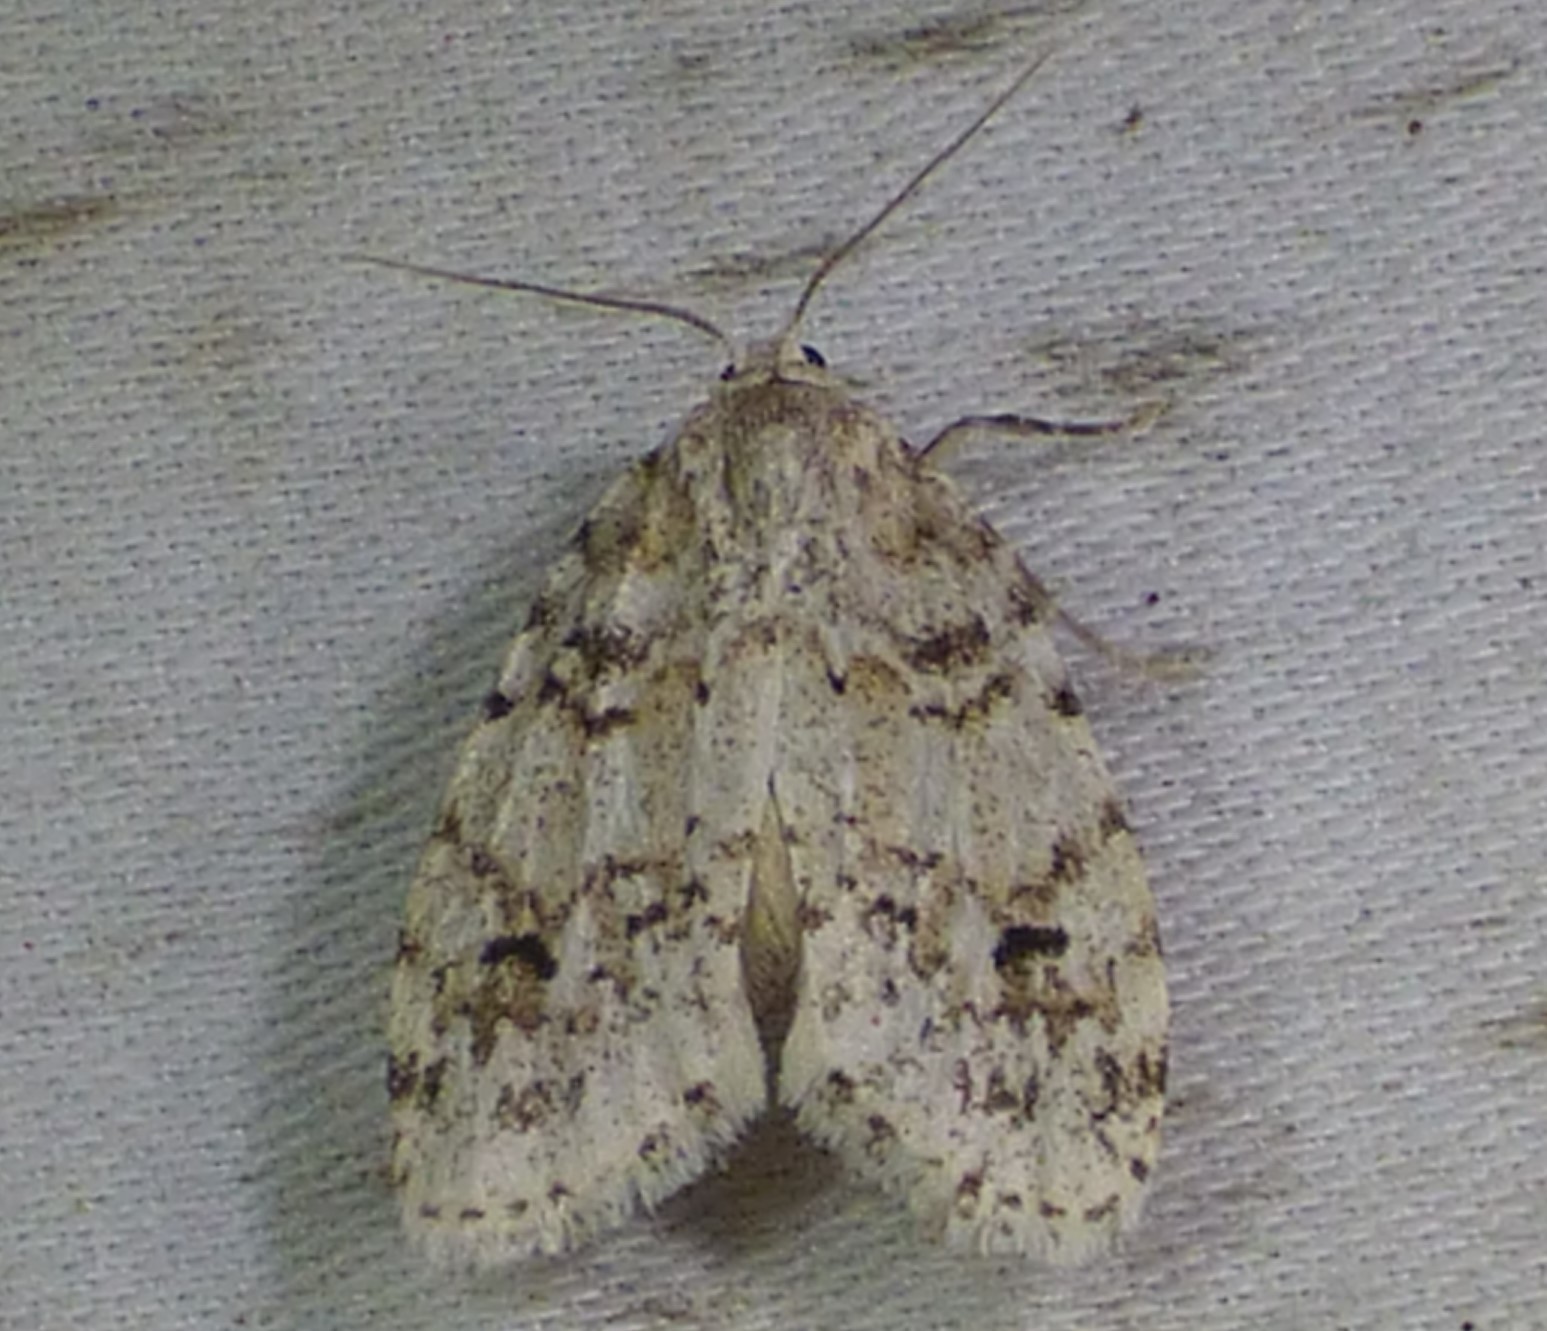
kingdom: Animalia
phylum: Arthropoda
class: Insecta
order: Lepidoptera
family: Erebidae
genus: Clemensia
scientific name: Clemensia albata
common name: Little white lichen moth
